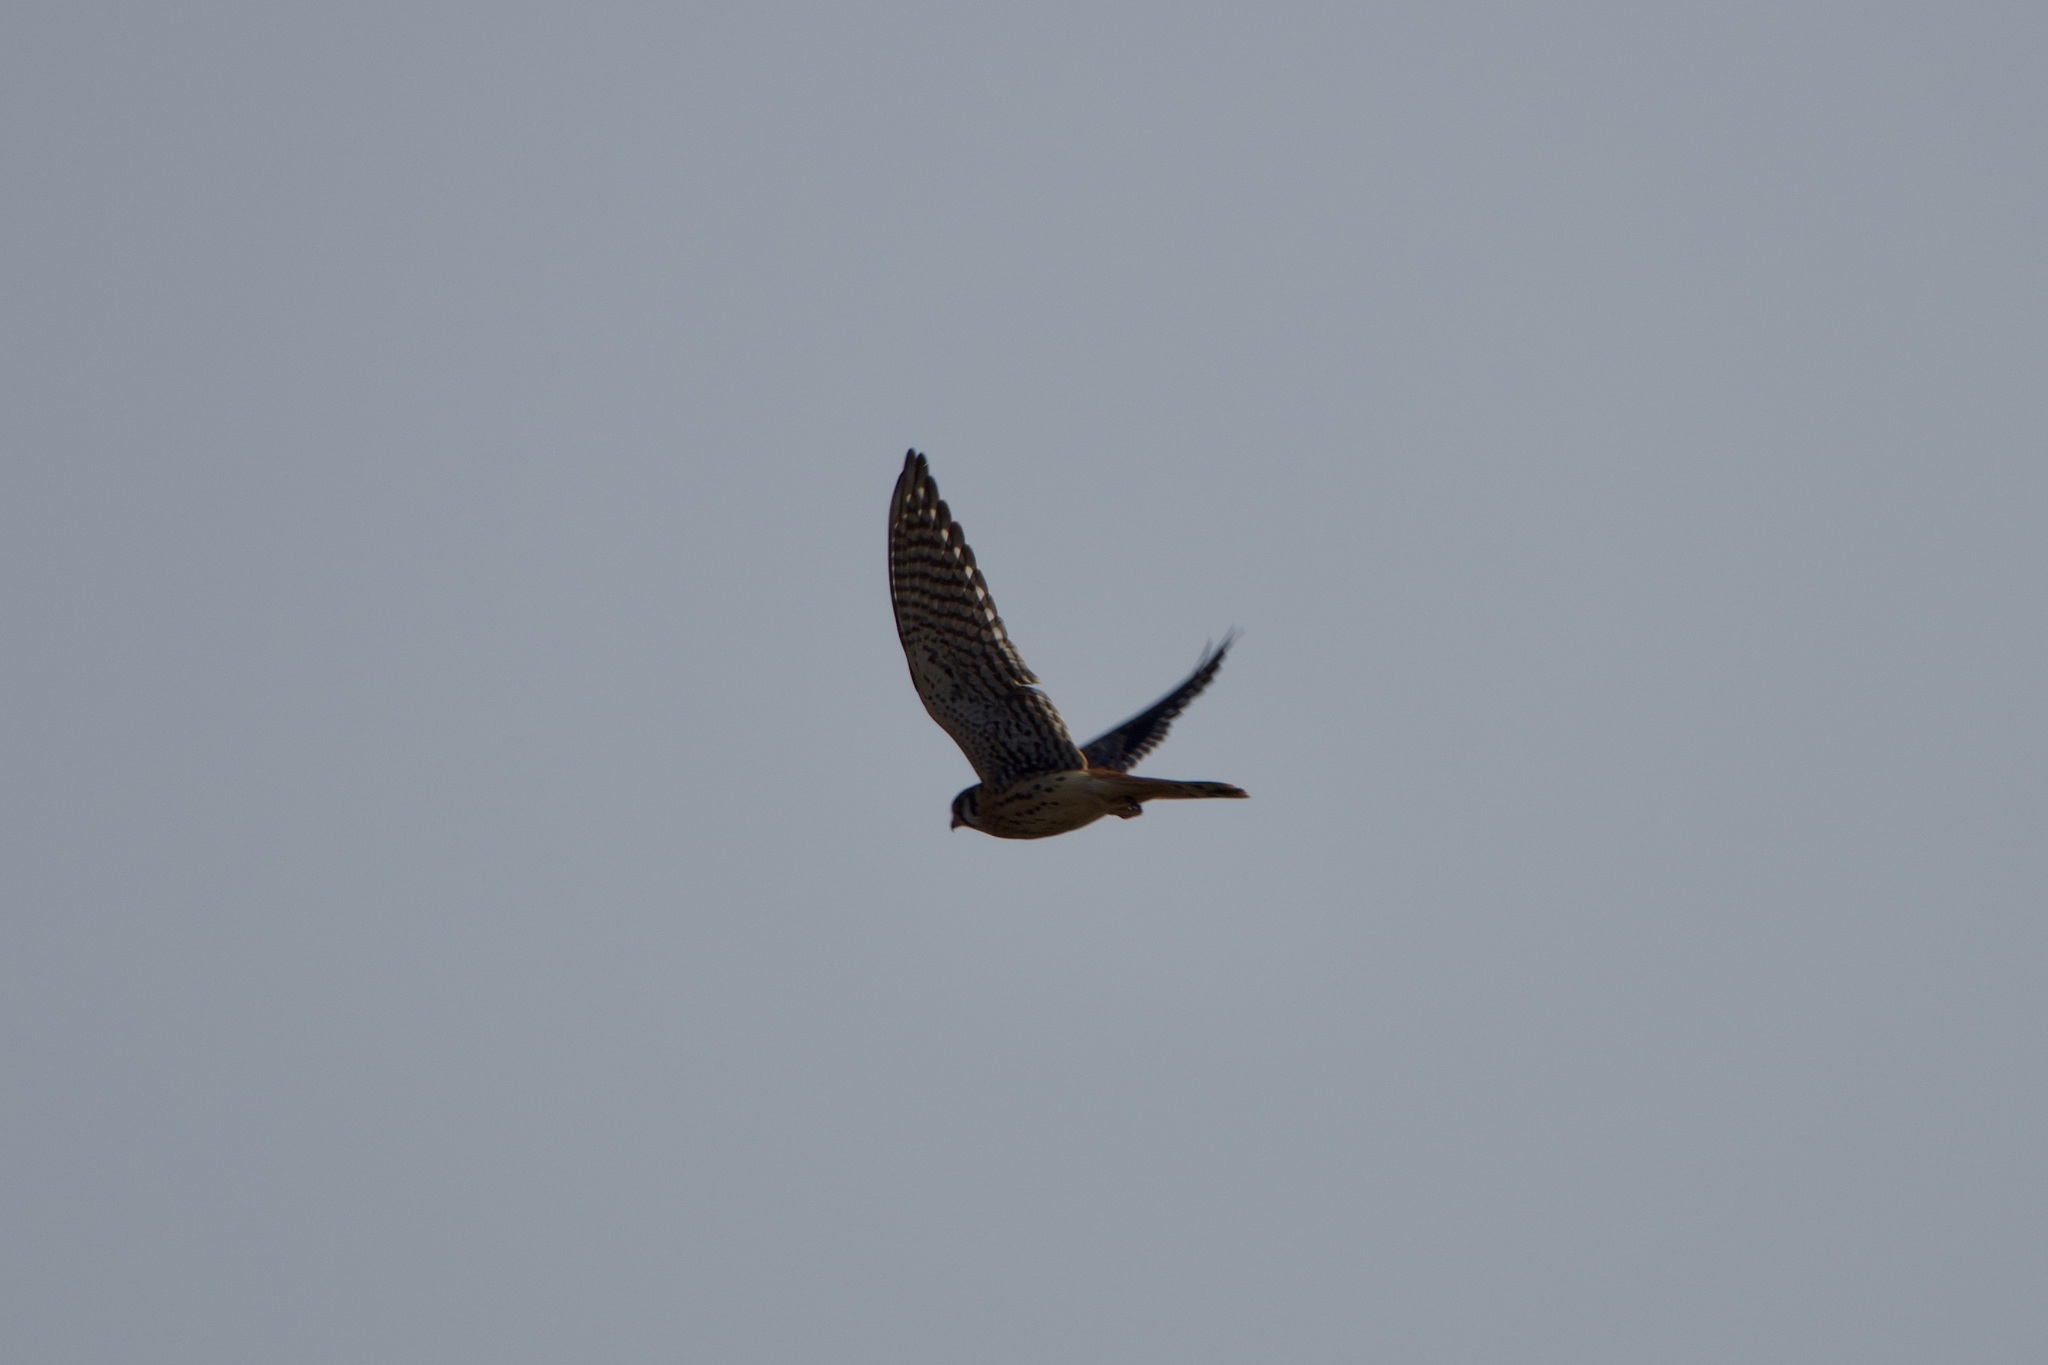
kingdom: Animalia
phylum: Chordata
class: Aves
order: Falconiformes
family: Falconidae
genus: Falco
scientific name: Falco sparverius
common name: American kestrel
